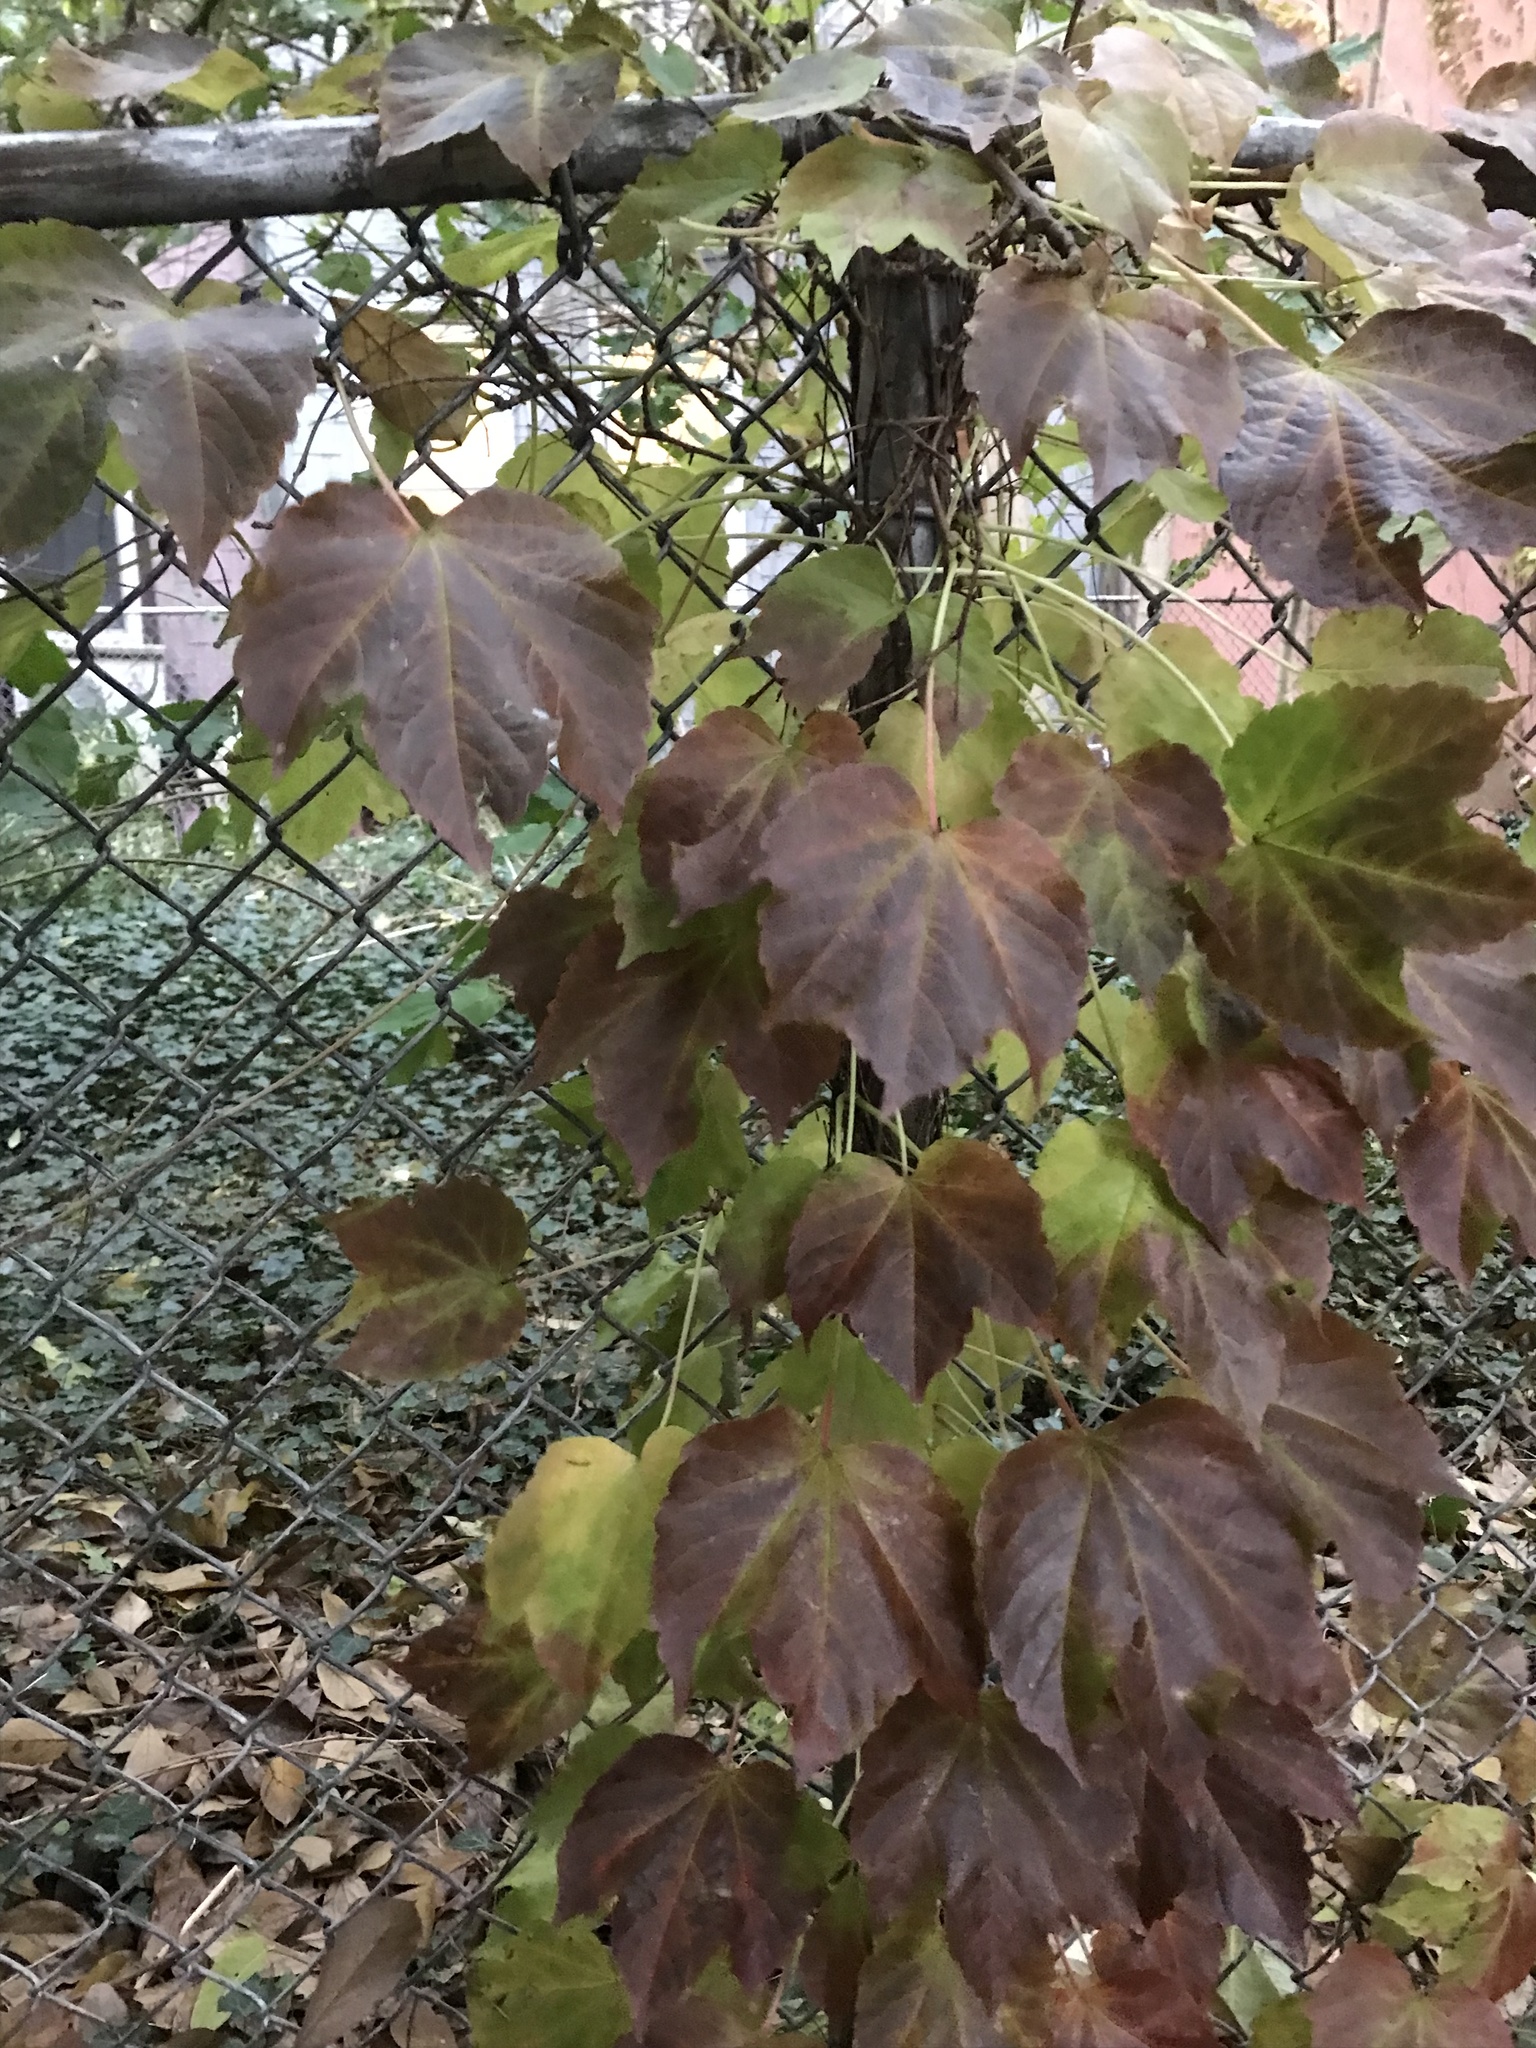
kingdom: Plantae
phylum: Tracheophyta
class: Magnoliopsida
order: Vitales
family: Vitaceae
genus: Parthenocissus
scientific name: Parthenocissus tricuspidata
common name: Boston ivy
